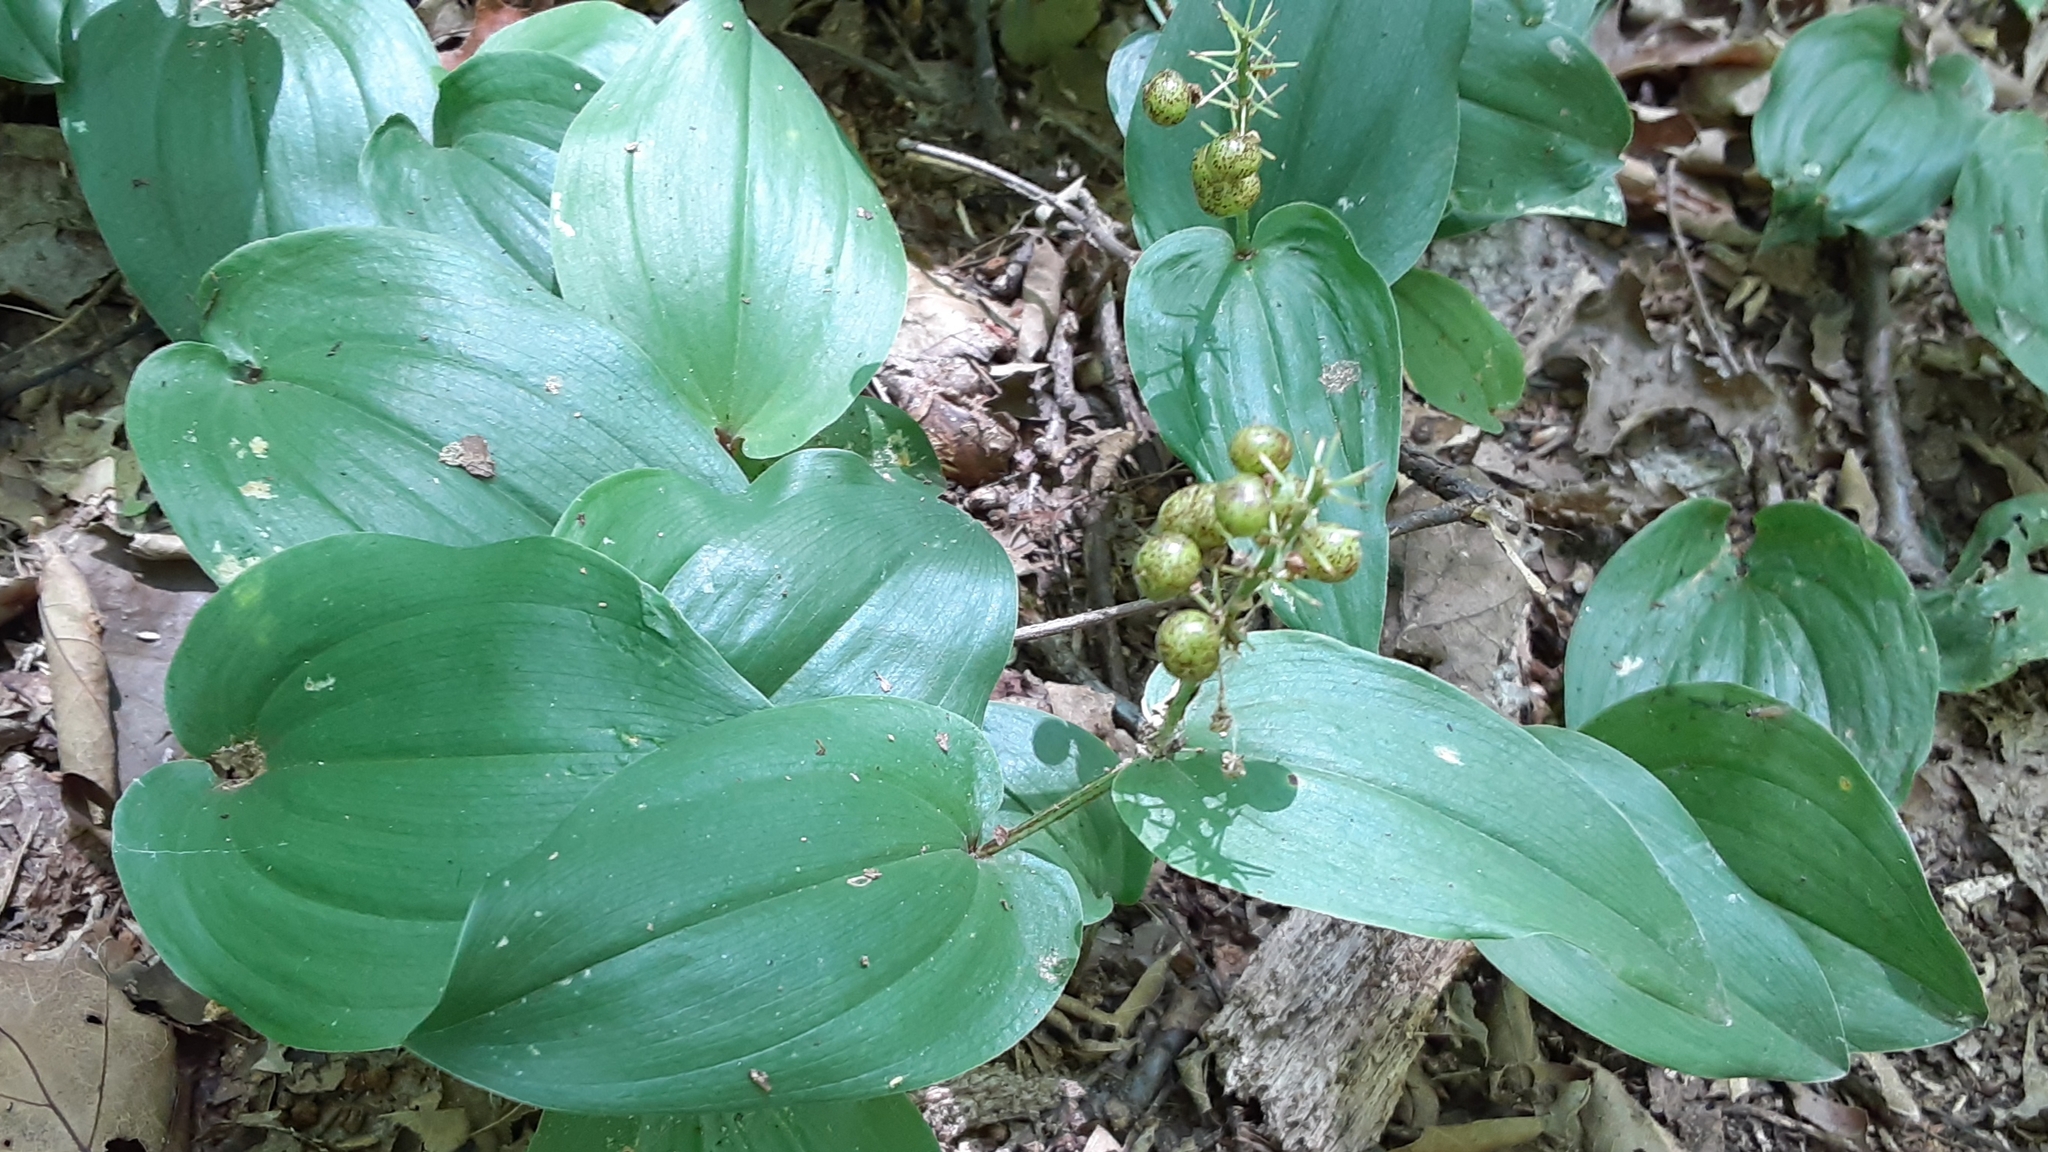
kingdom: Plantae
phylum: Tracheophyta
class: Liliopsida
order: Asparagales
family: Asparagaceae
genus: Maianthemum
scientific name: Maianthemum canadense
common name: False lily-of-the-valley
